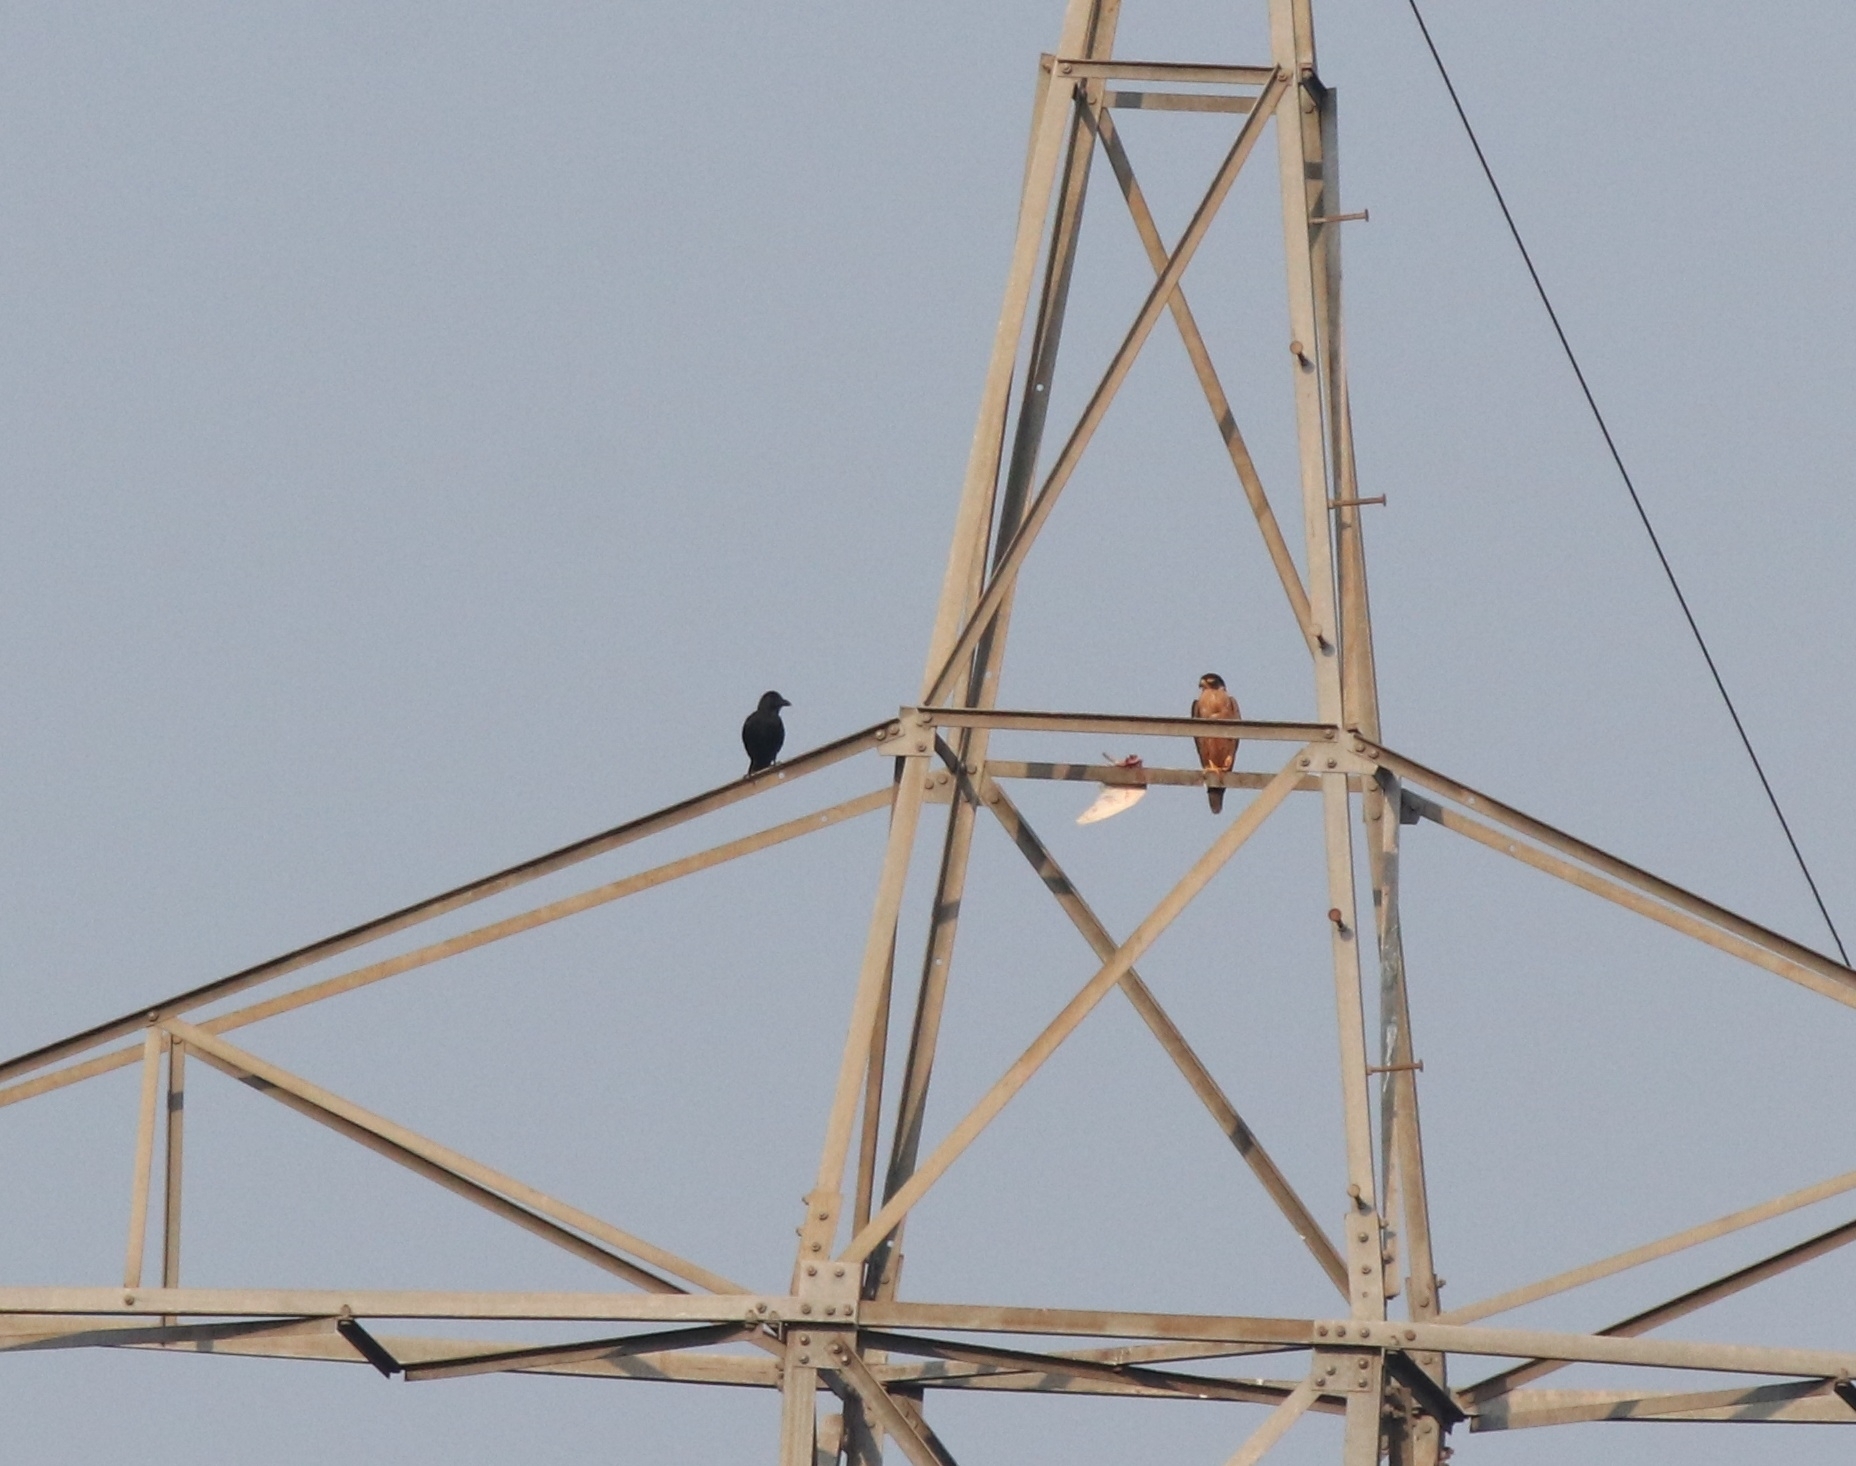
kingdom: Animalia
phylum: Chordata
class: Aves
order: Falconiformes
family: Falconidae
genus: Falco
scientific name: Falco peregrinus
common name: Peregrine falcon
